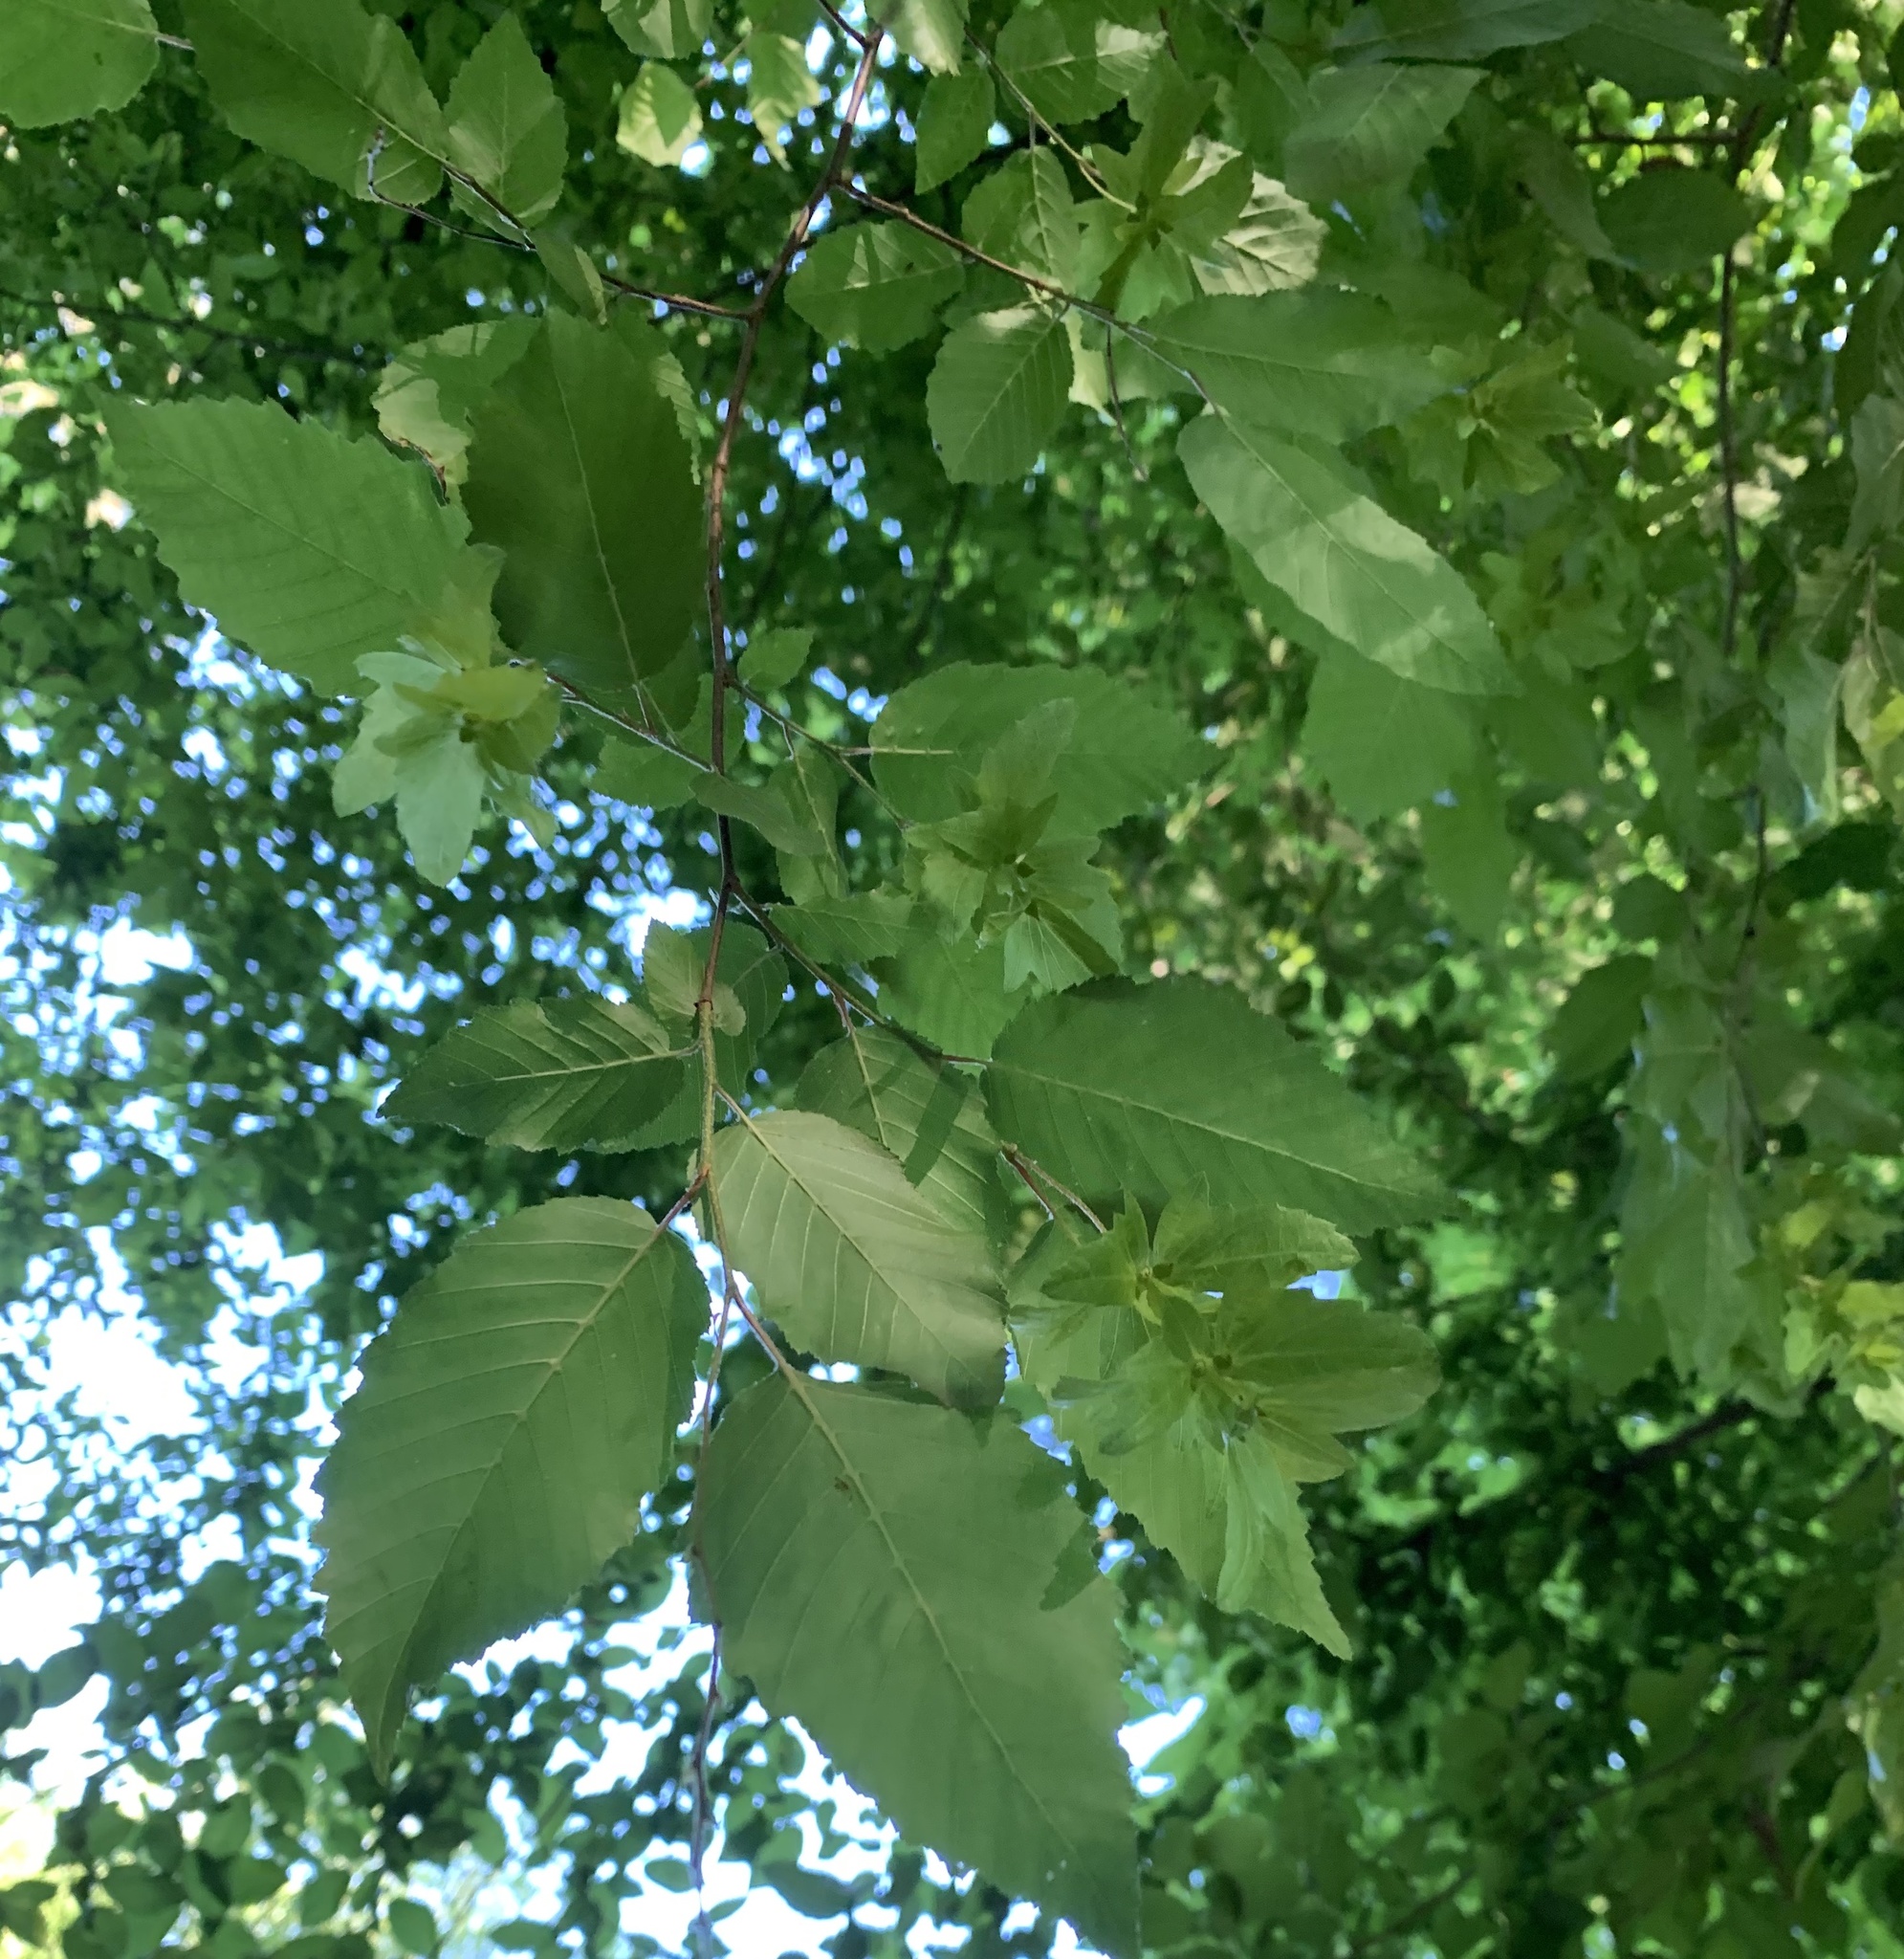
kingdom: Plantae
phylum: Tracheophyta
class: Magnoliopsida
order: Fagales
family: Betulaceae
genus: Carpinus
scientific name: Carpinus caroliniana
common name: American hornbeam
